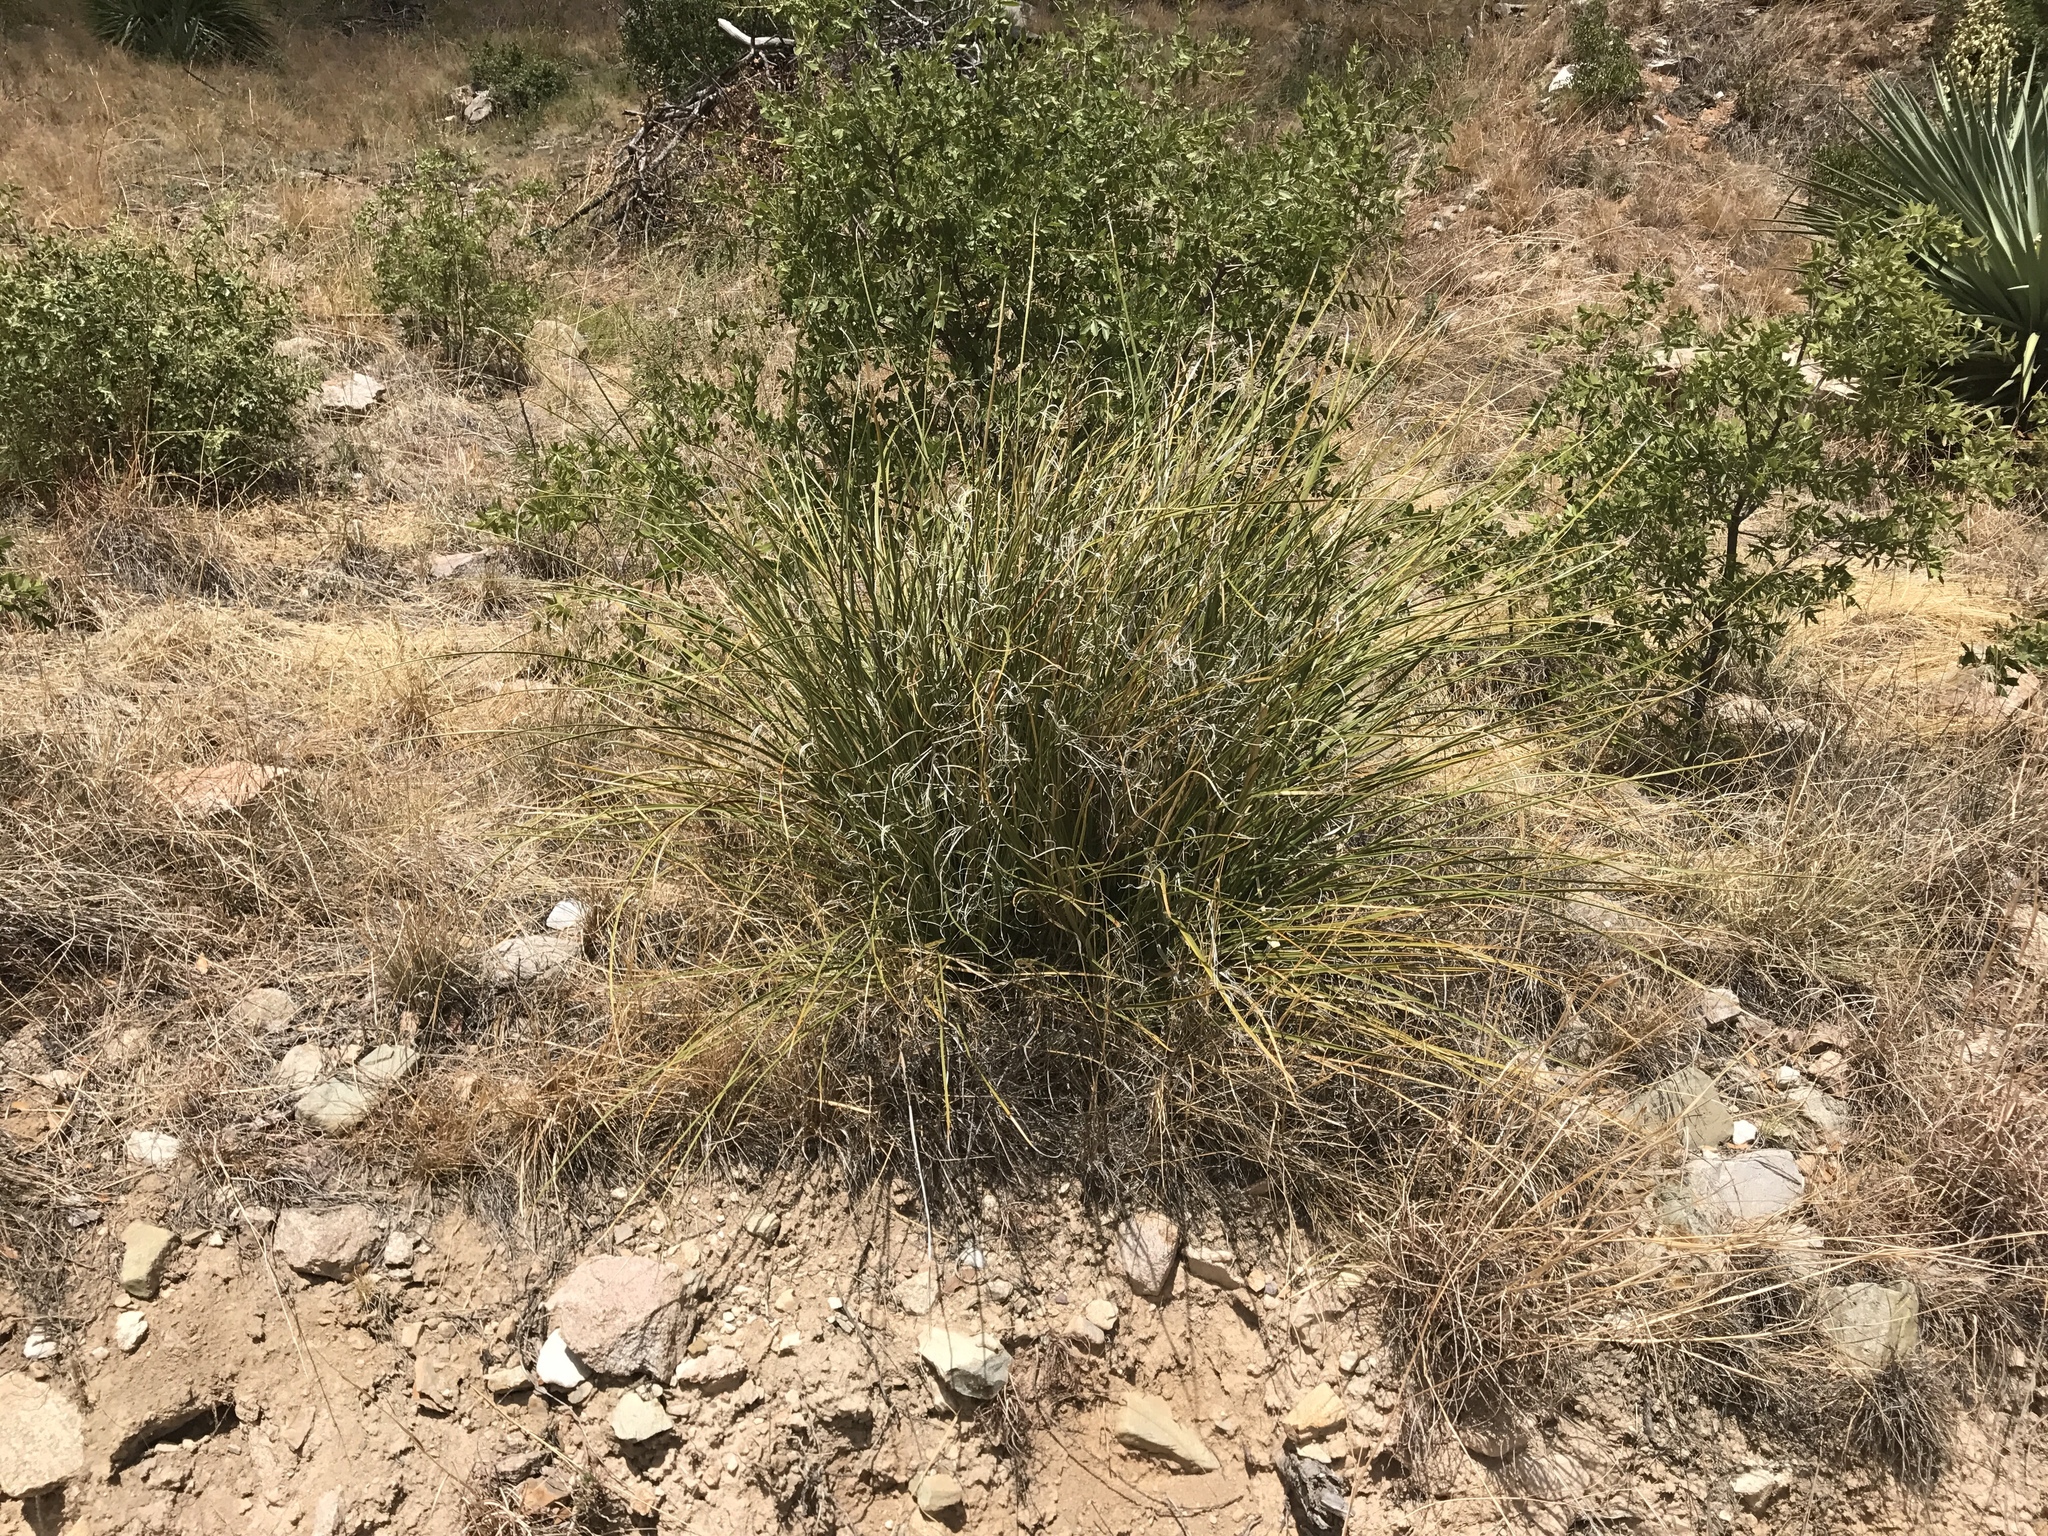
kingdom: Plantae
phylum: Tracheophyta
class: Liliopsida
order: Asparagales
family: Asparagaceae
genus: Nolina
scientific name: Nolina microcarpa
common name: Bear-grass
